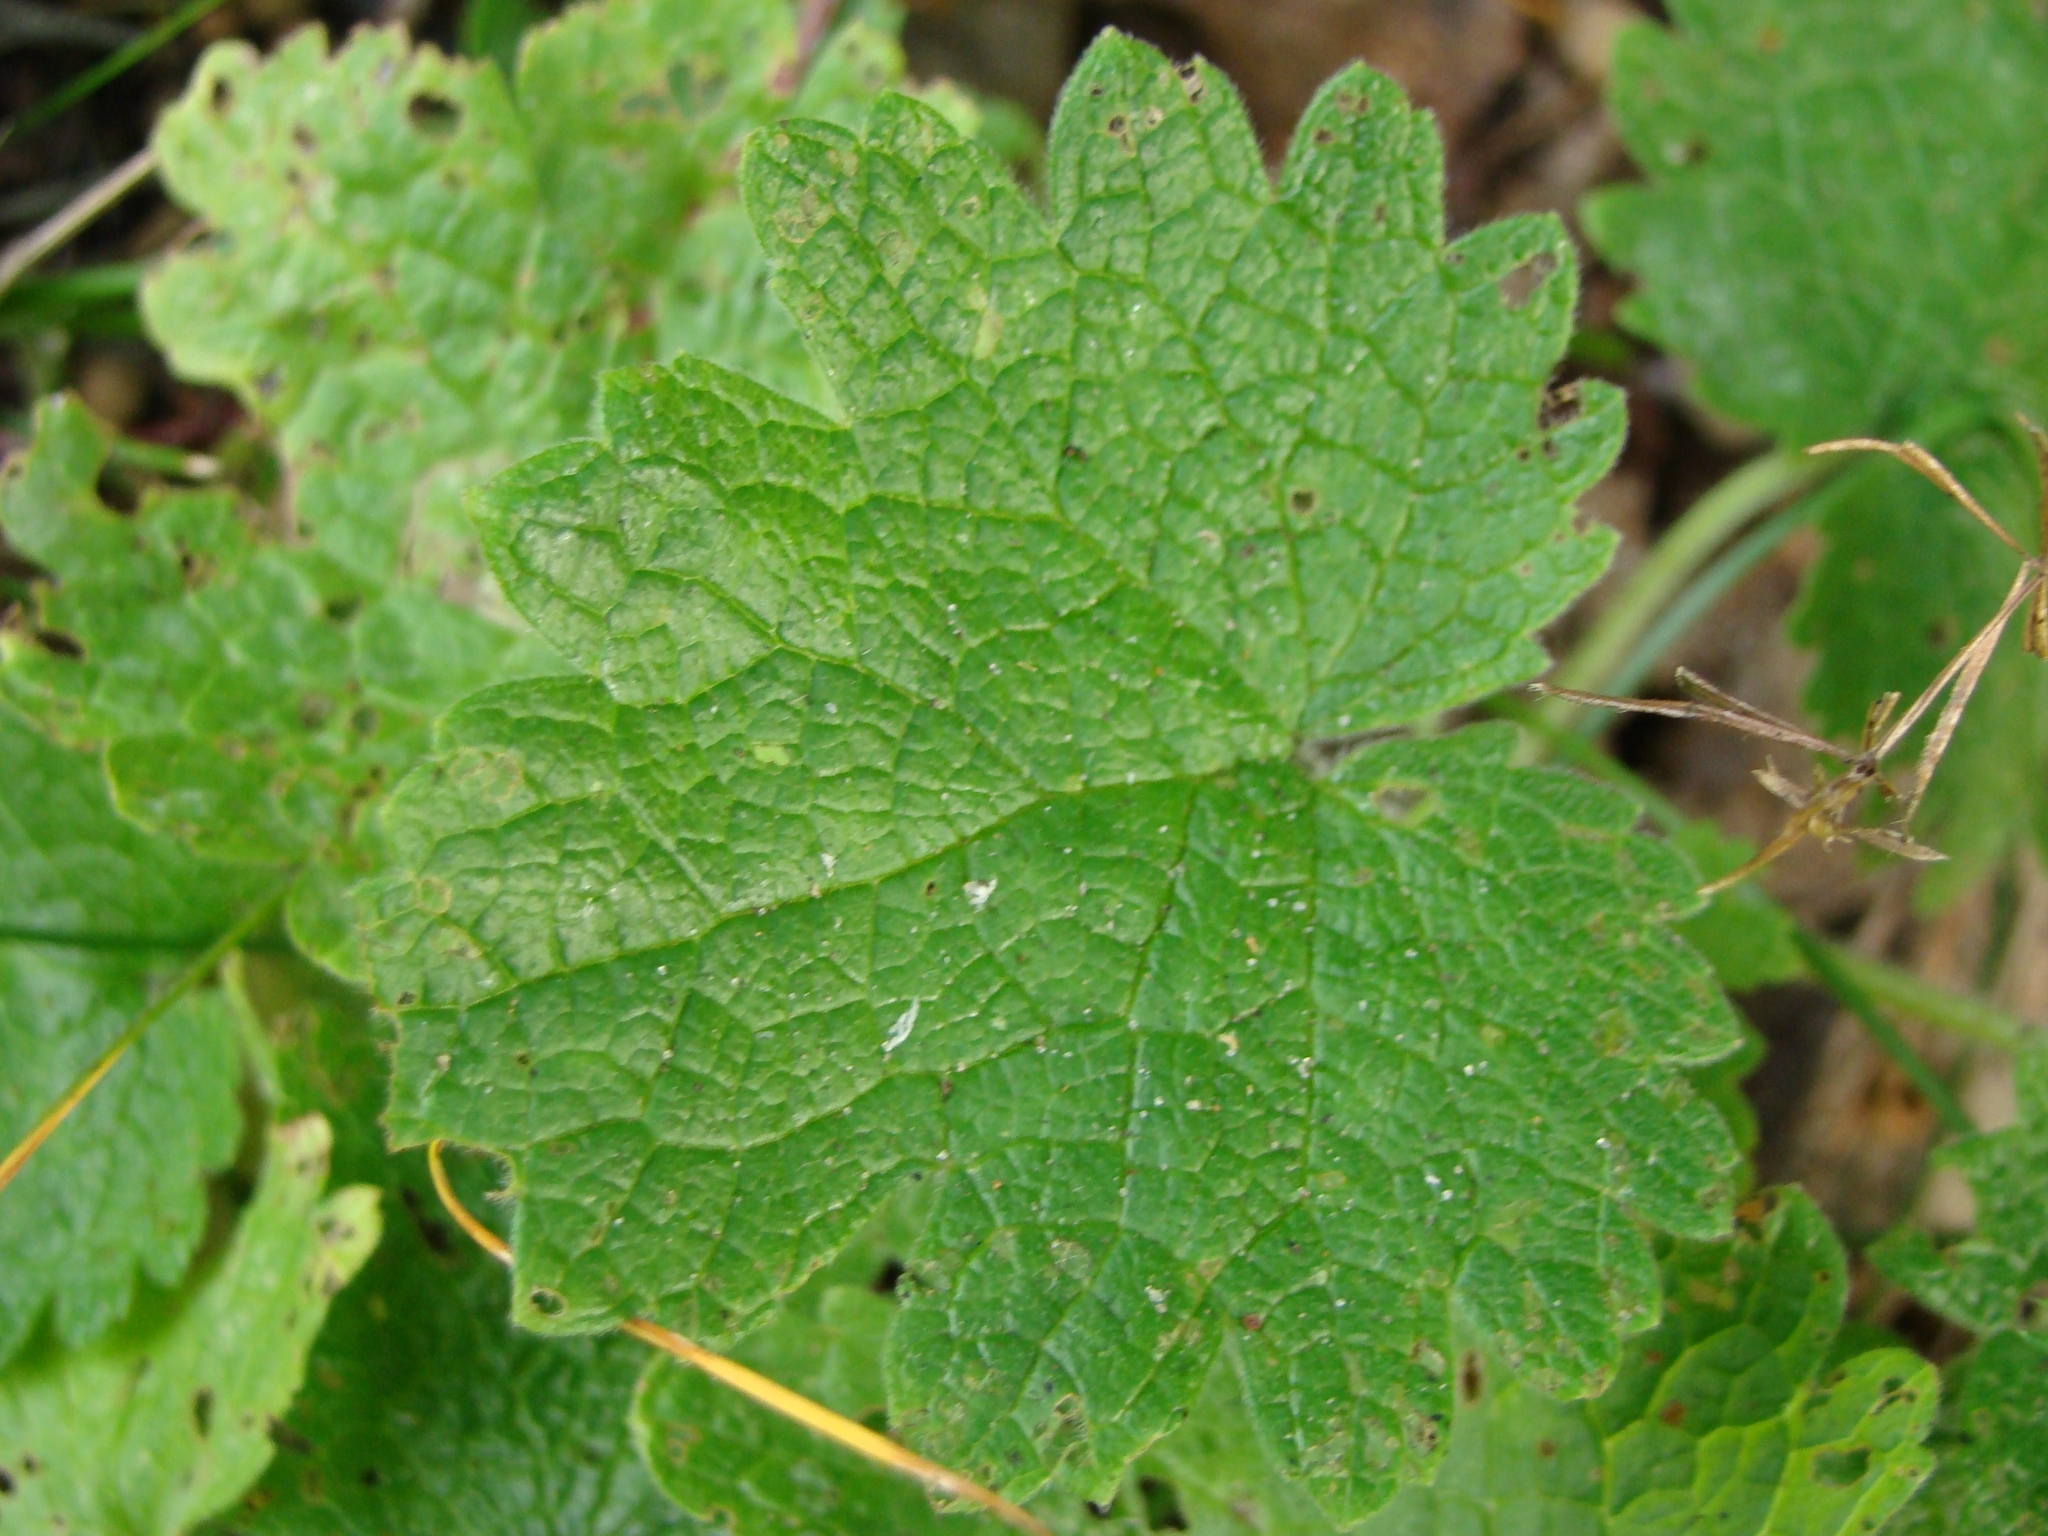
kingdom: Plantae
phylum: Tracheophyta
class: Magnoliopsida
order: Lamiales
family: Lamiaceae
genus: Leonurus
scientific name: Leonurus quinquelobatus
